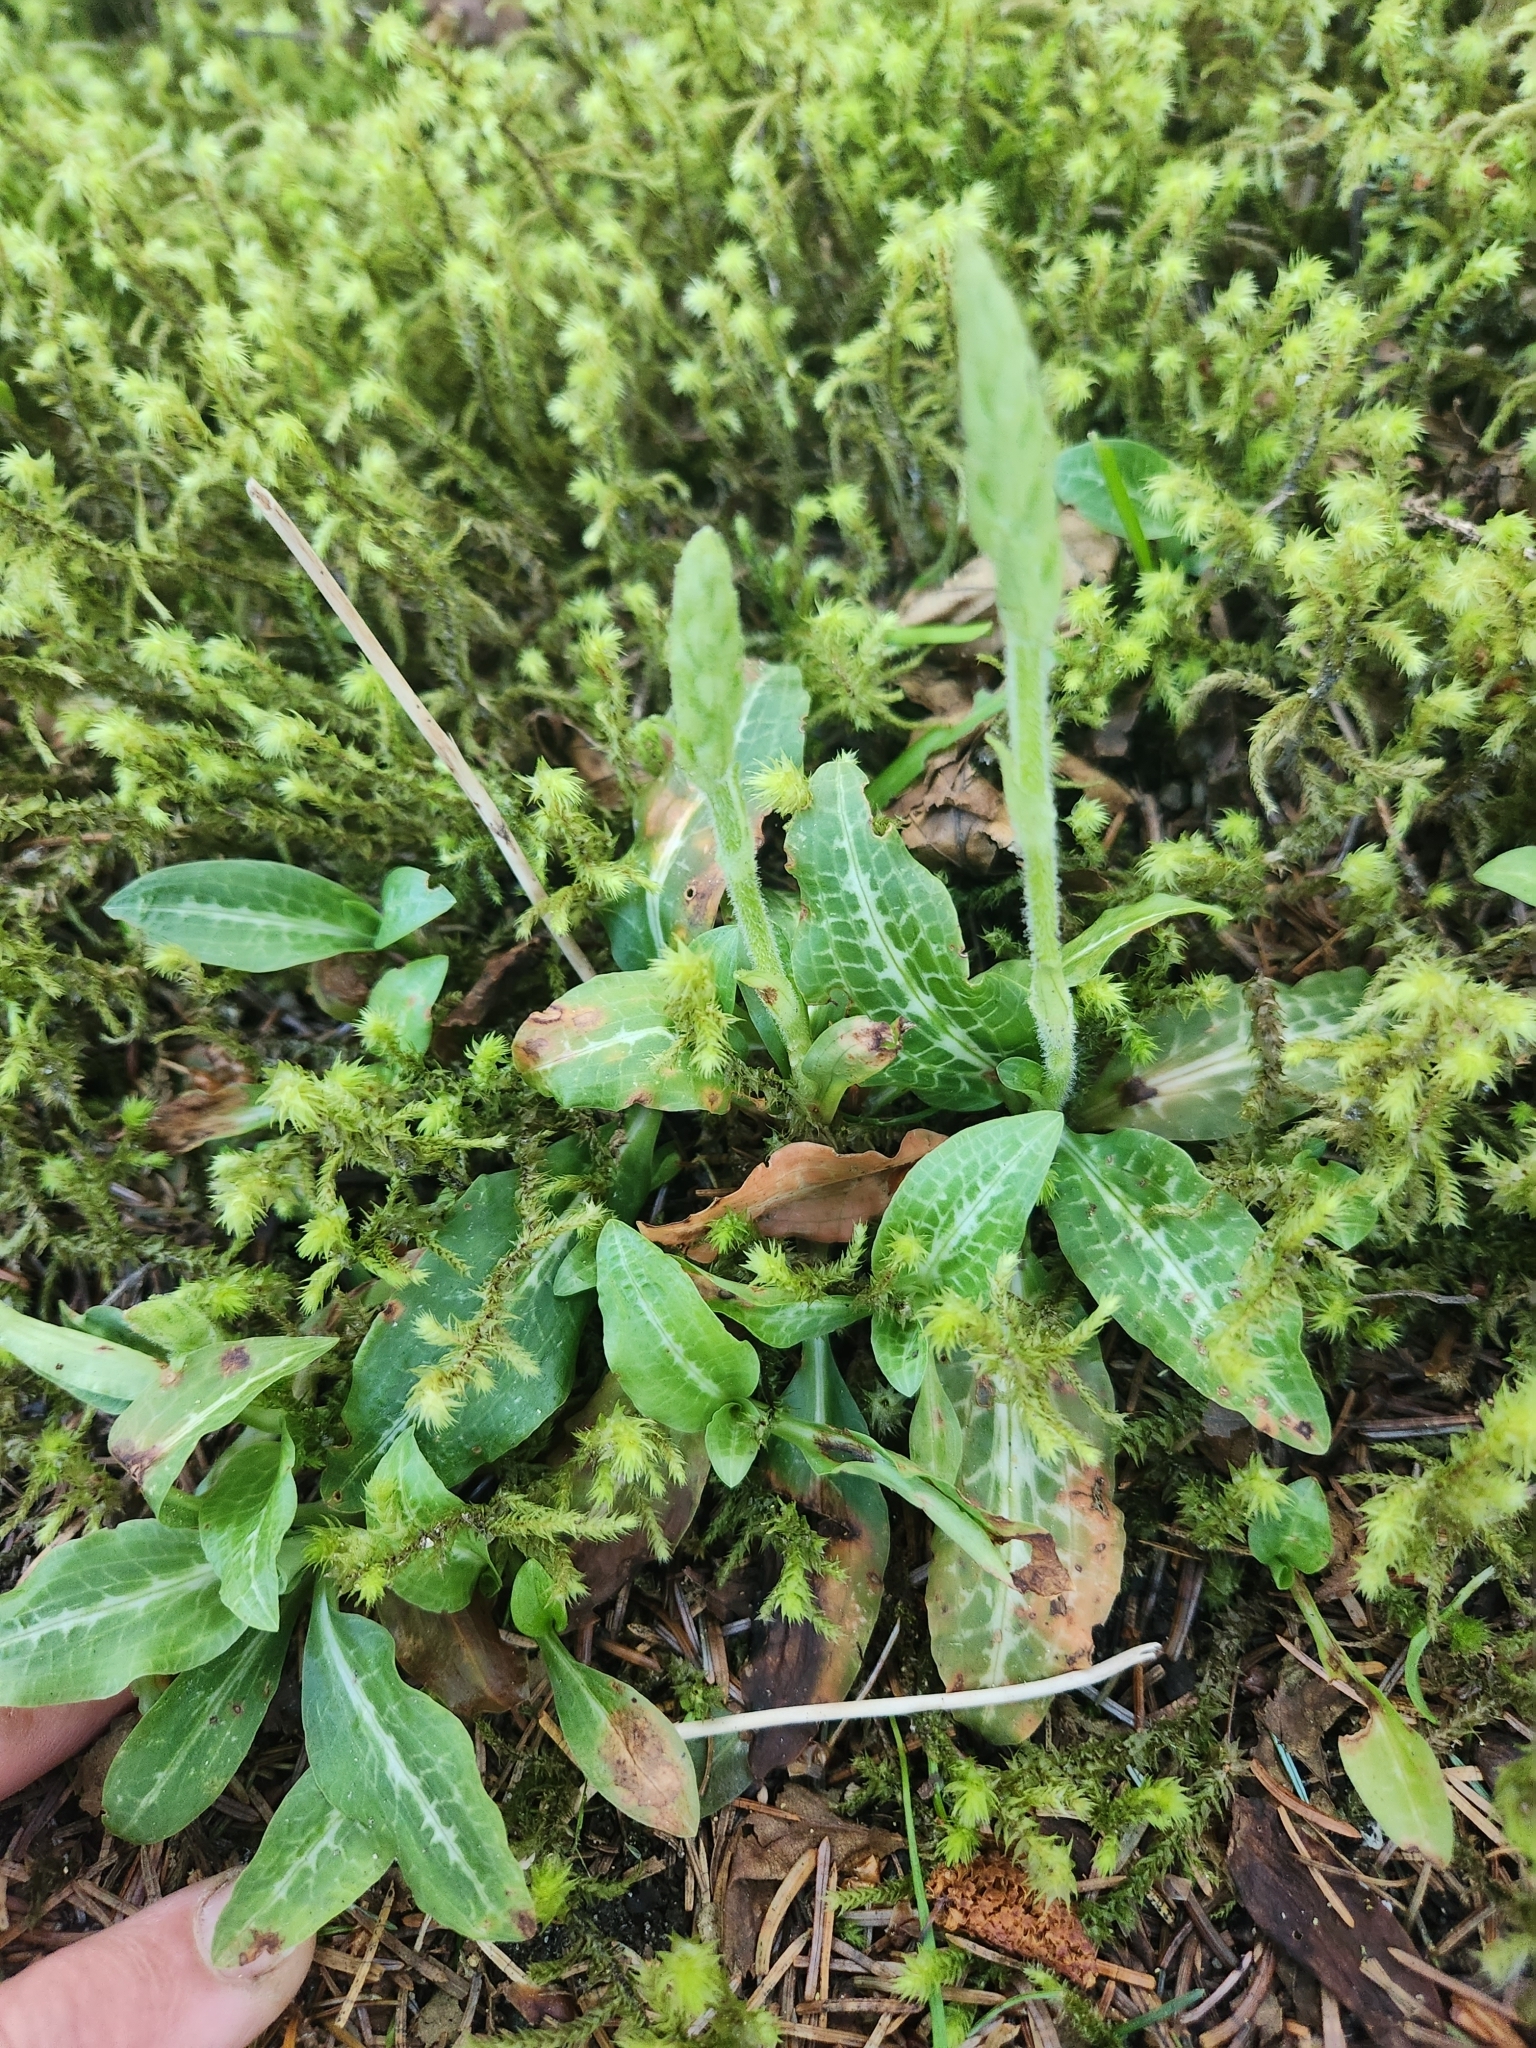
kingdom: Plantae
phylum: Tracheophyta
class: Liliopsida
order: Asparagales
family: Orchidaceae
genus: Goodyera
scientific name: Goodyera oblongifolia
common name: Giant rattlesnake-plantain
